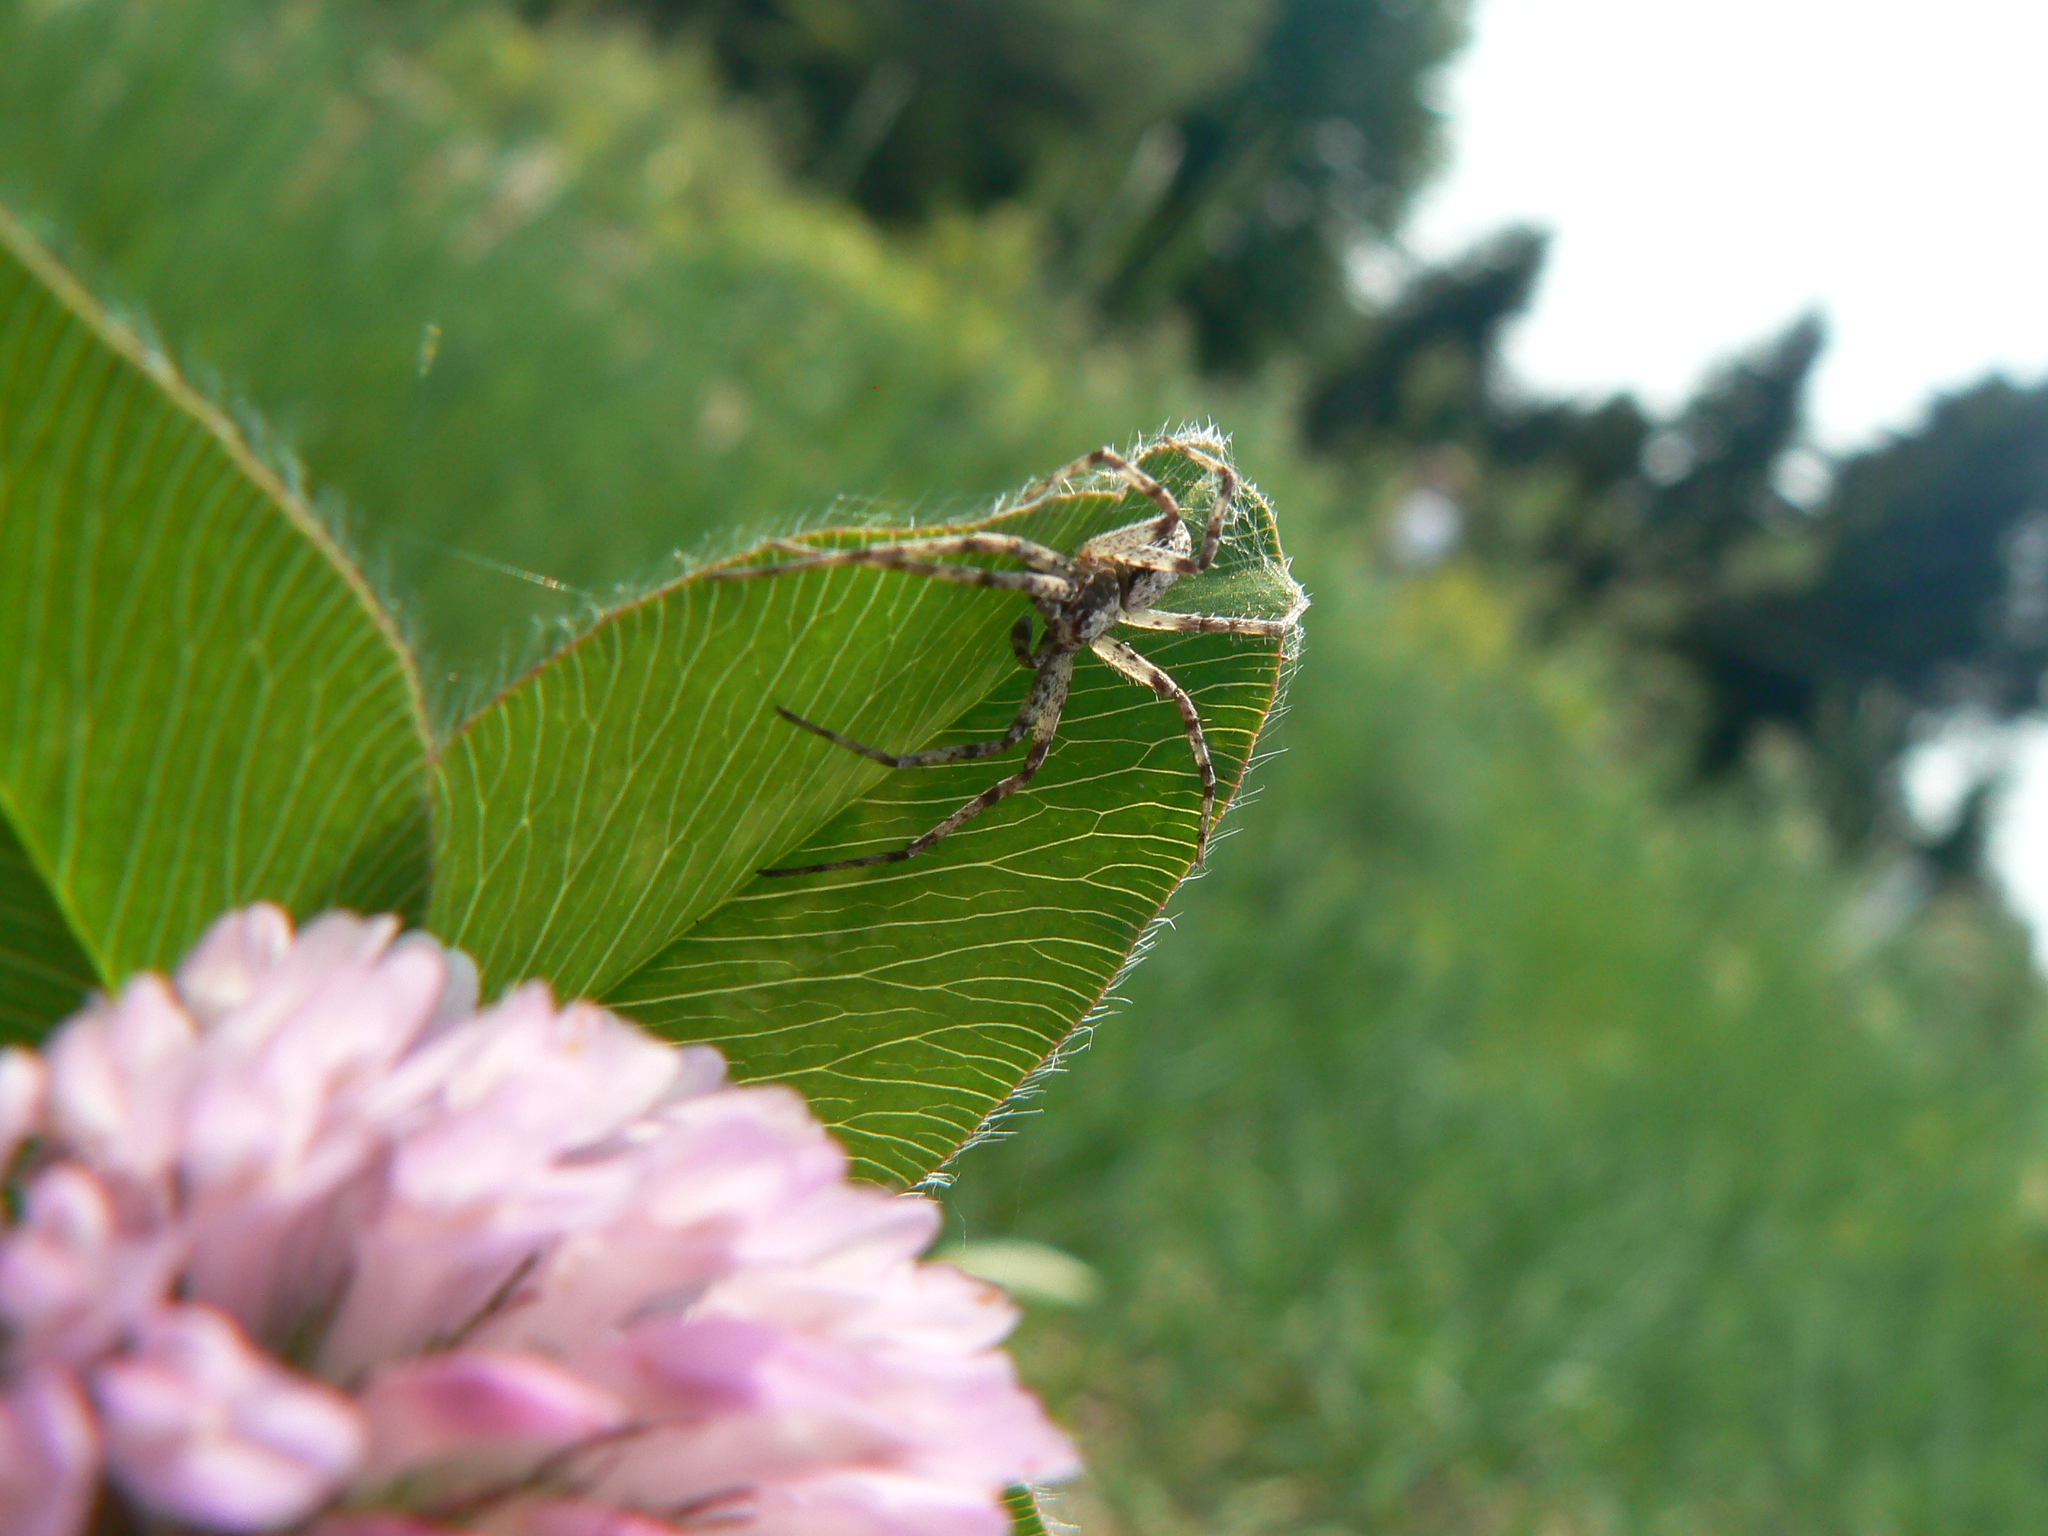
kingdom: Animalia
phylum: Arthropoda
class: Arachnida
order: Araneae
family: Philodromidae
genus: Philodromus
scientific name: Philodromus spectabilis
